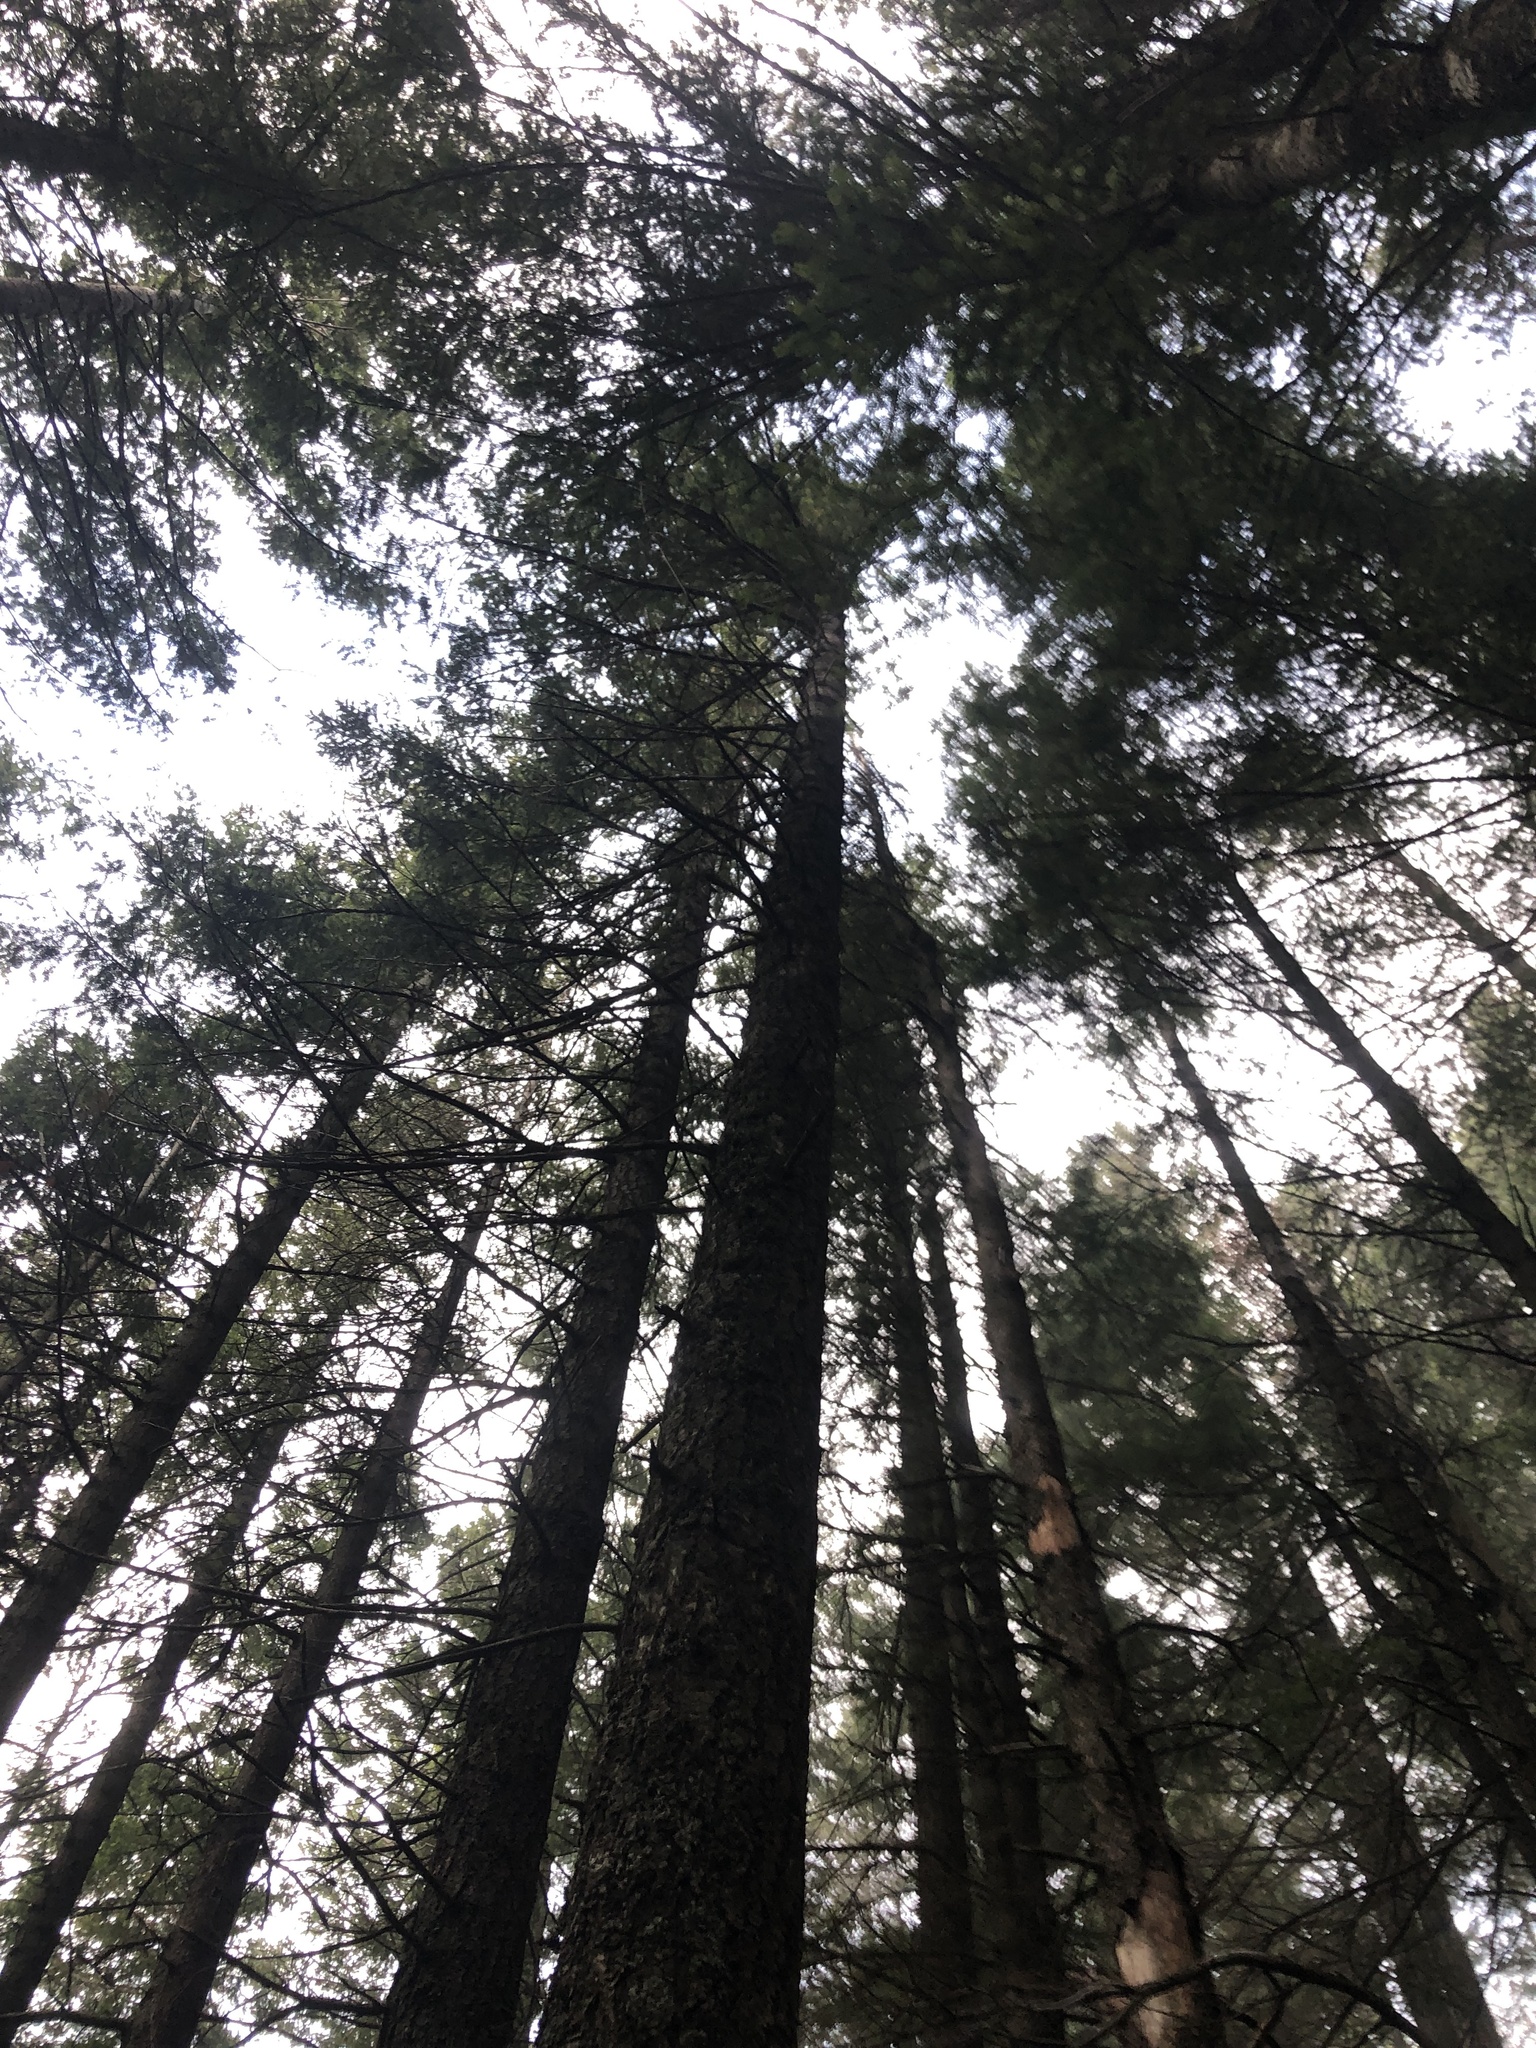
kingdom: Plantae
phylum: Tracheophyta
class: Pinopsida
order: Pinales
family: Pinaceae
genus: Pseudotsuga
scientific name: Pseudotsuga menziesii
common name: Douglas fir
